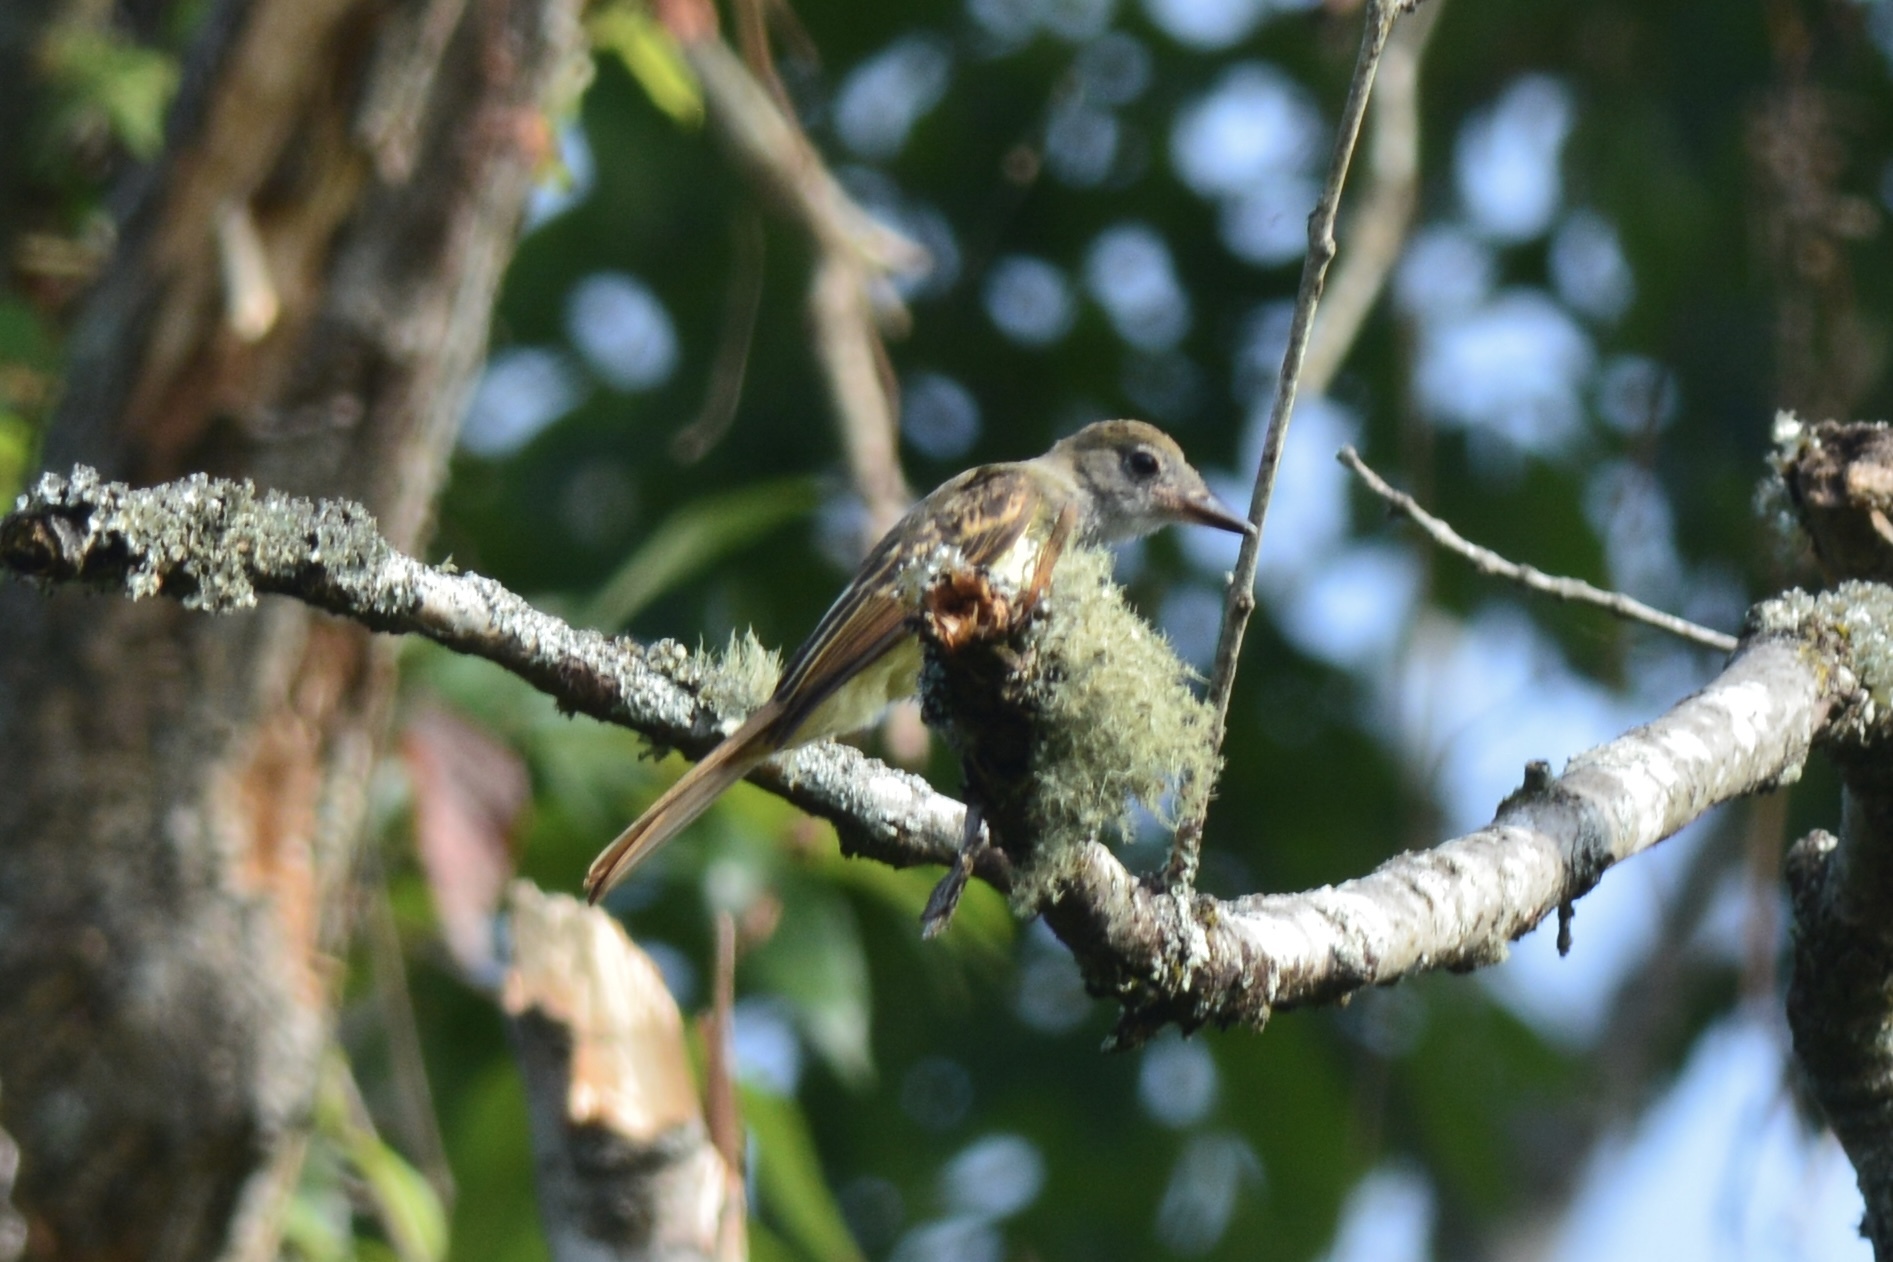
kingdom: Animalia
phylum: Chordata
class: Aves
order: Passeriformes
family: Tyrannidae
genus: Myiarchus
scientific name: Myiarchus crinitus
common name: Great crested flycatcher
